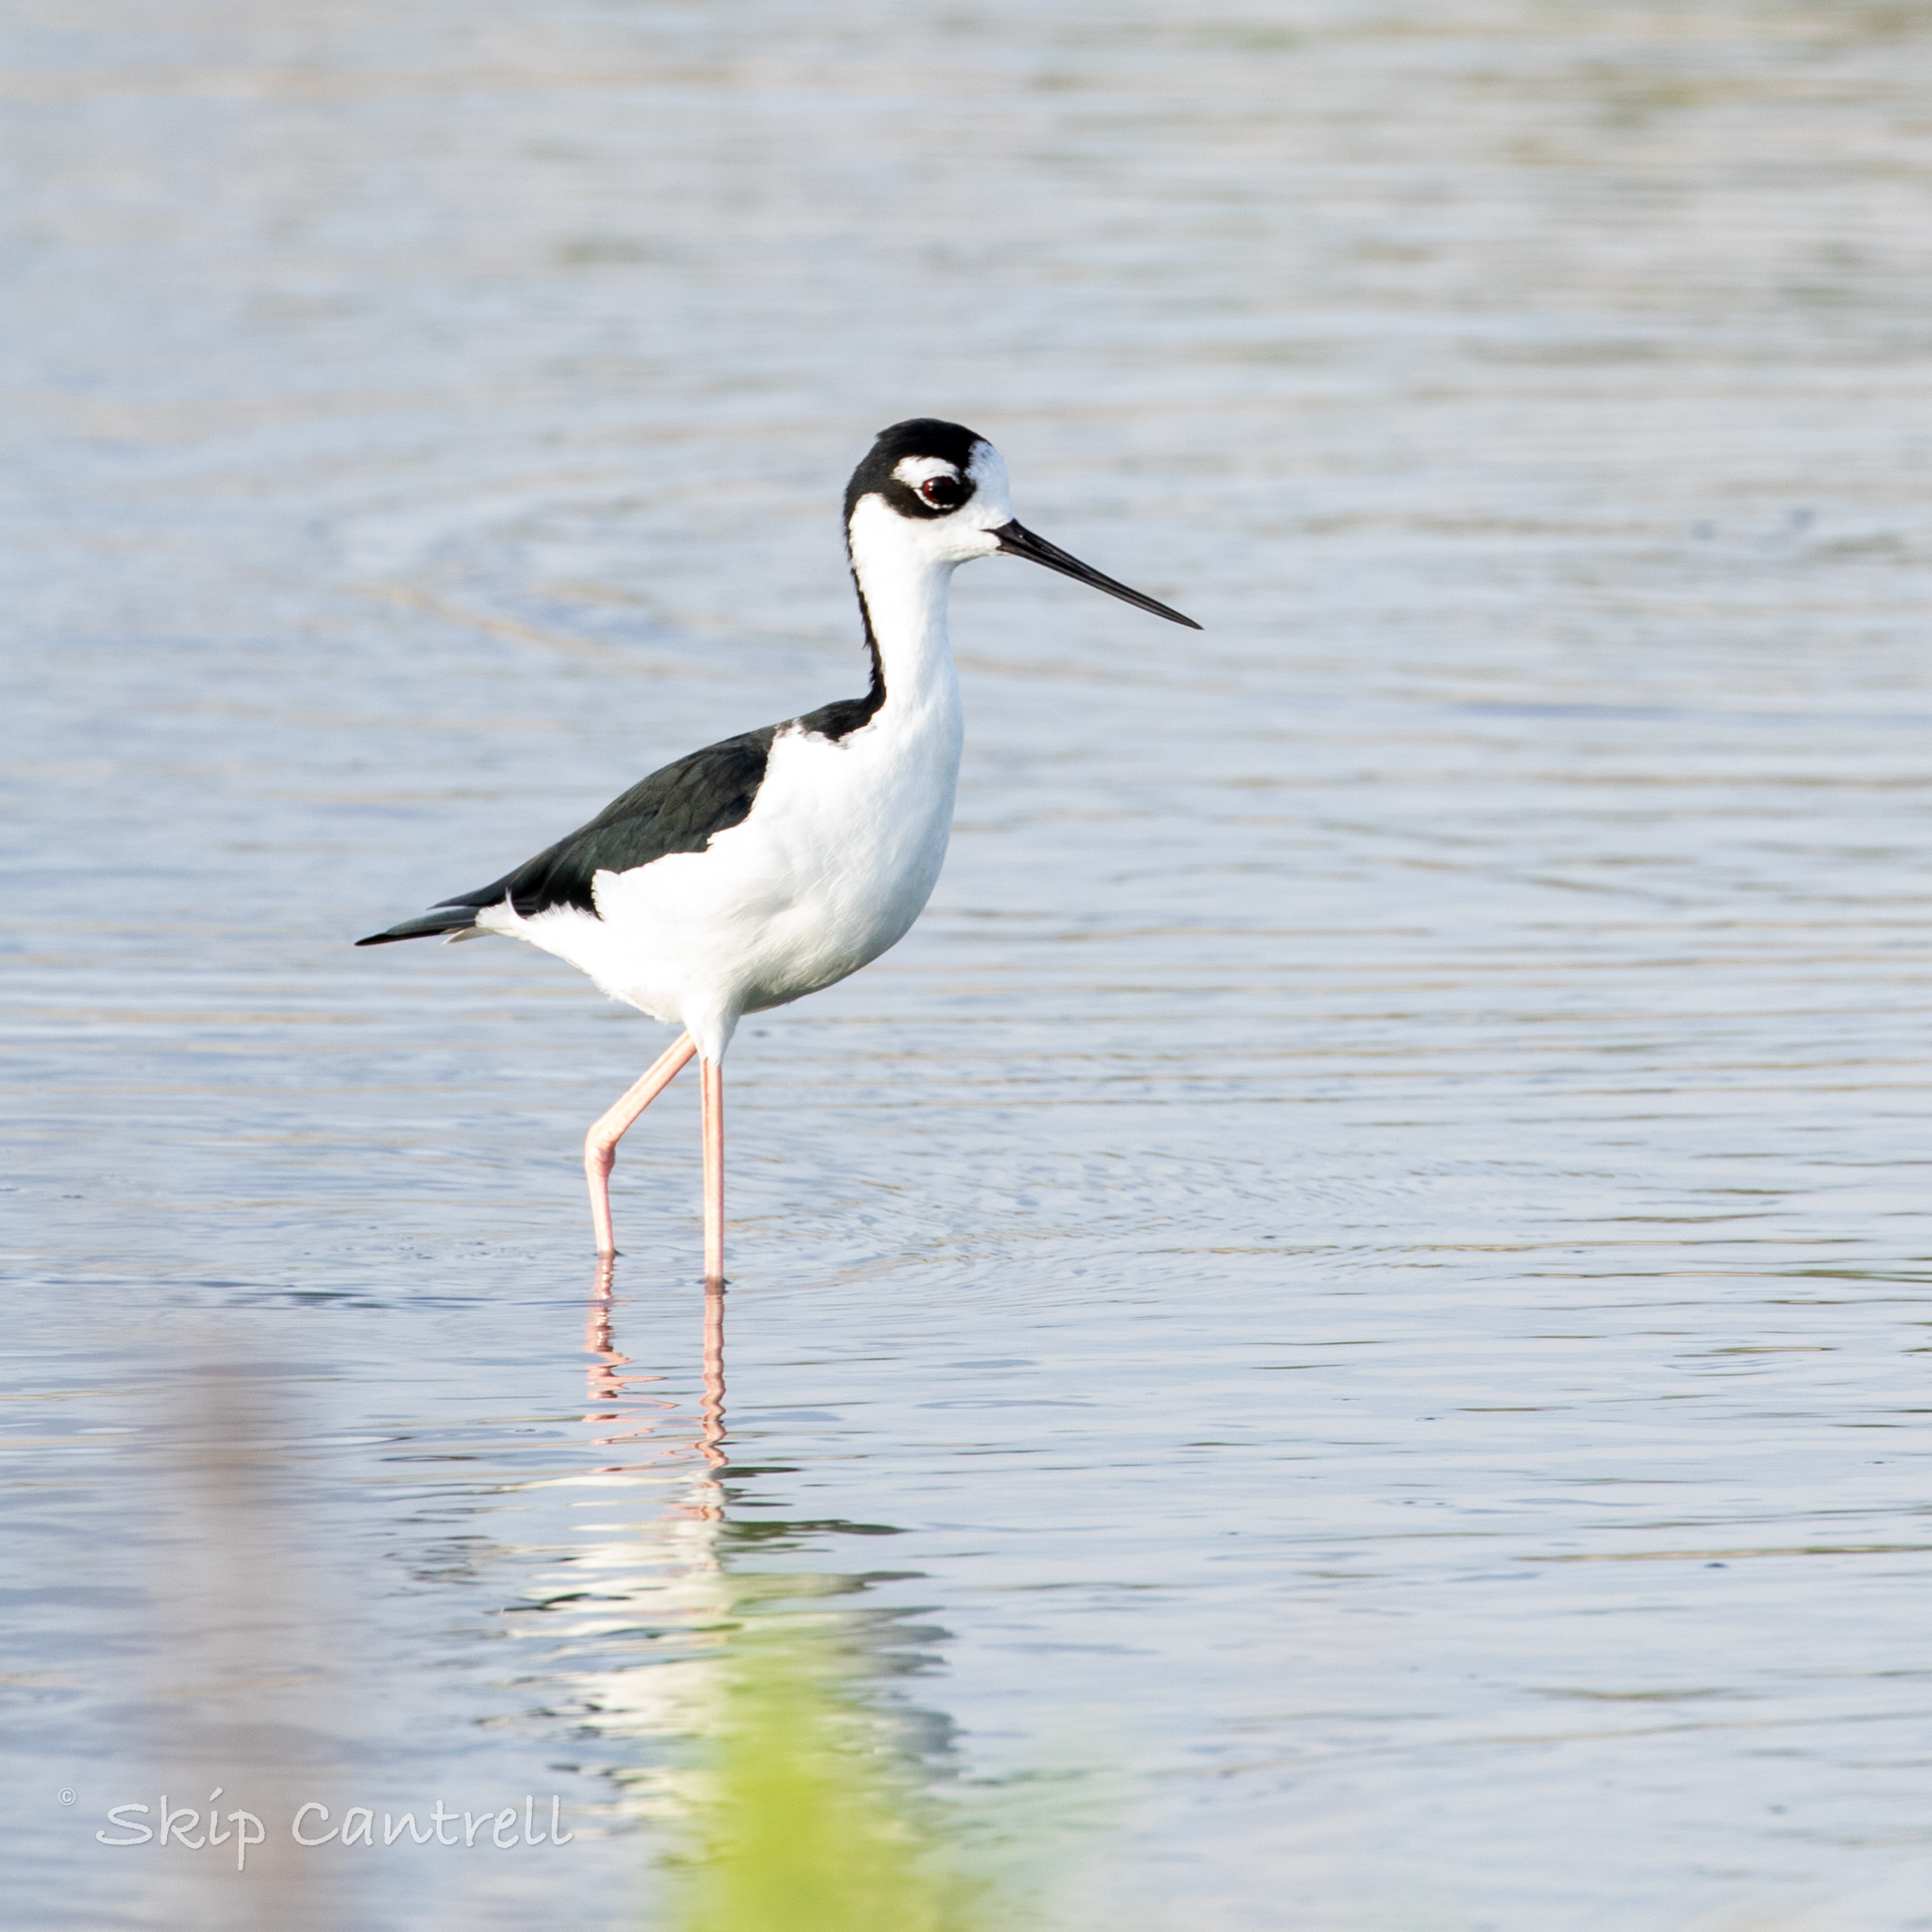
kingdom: Animalia
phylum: Chordata
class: Aves
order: Charadriiformes
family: Recurvirostridae
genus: Himantopus
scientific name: Himantopus mexicanus
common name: Black-necked stilt
